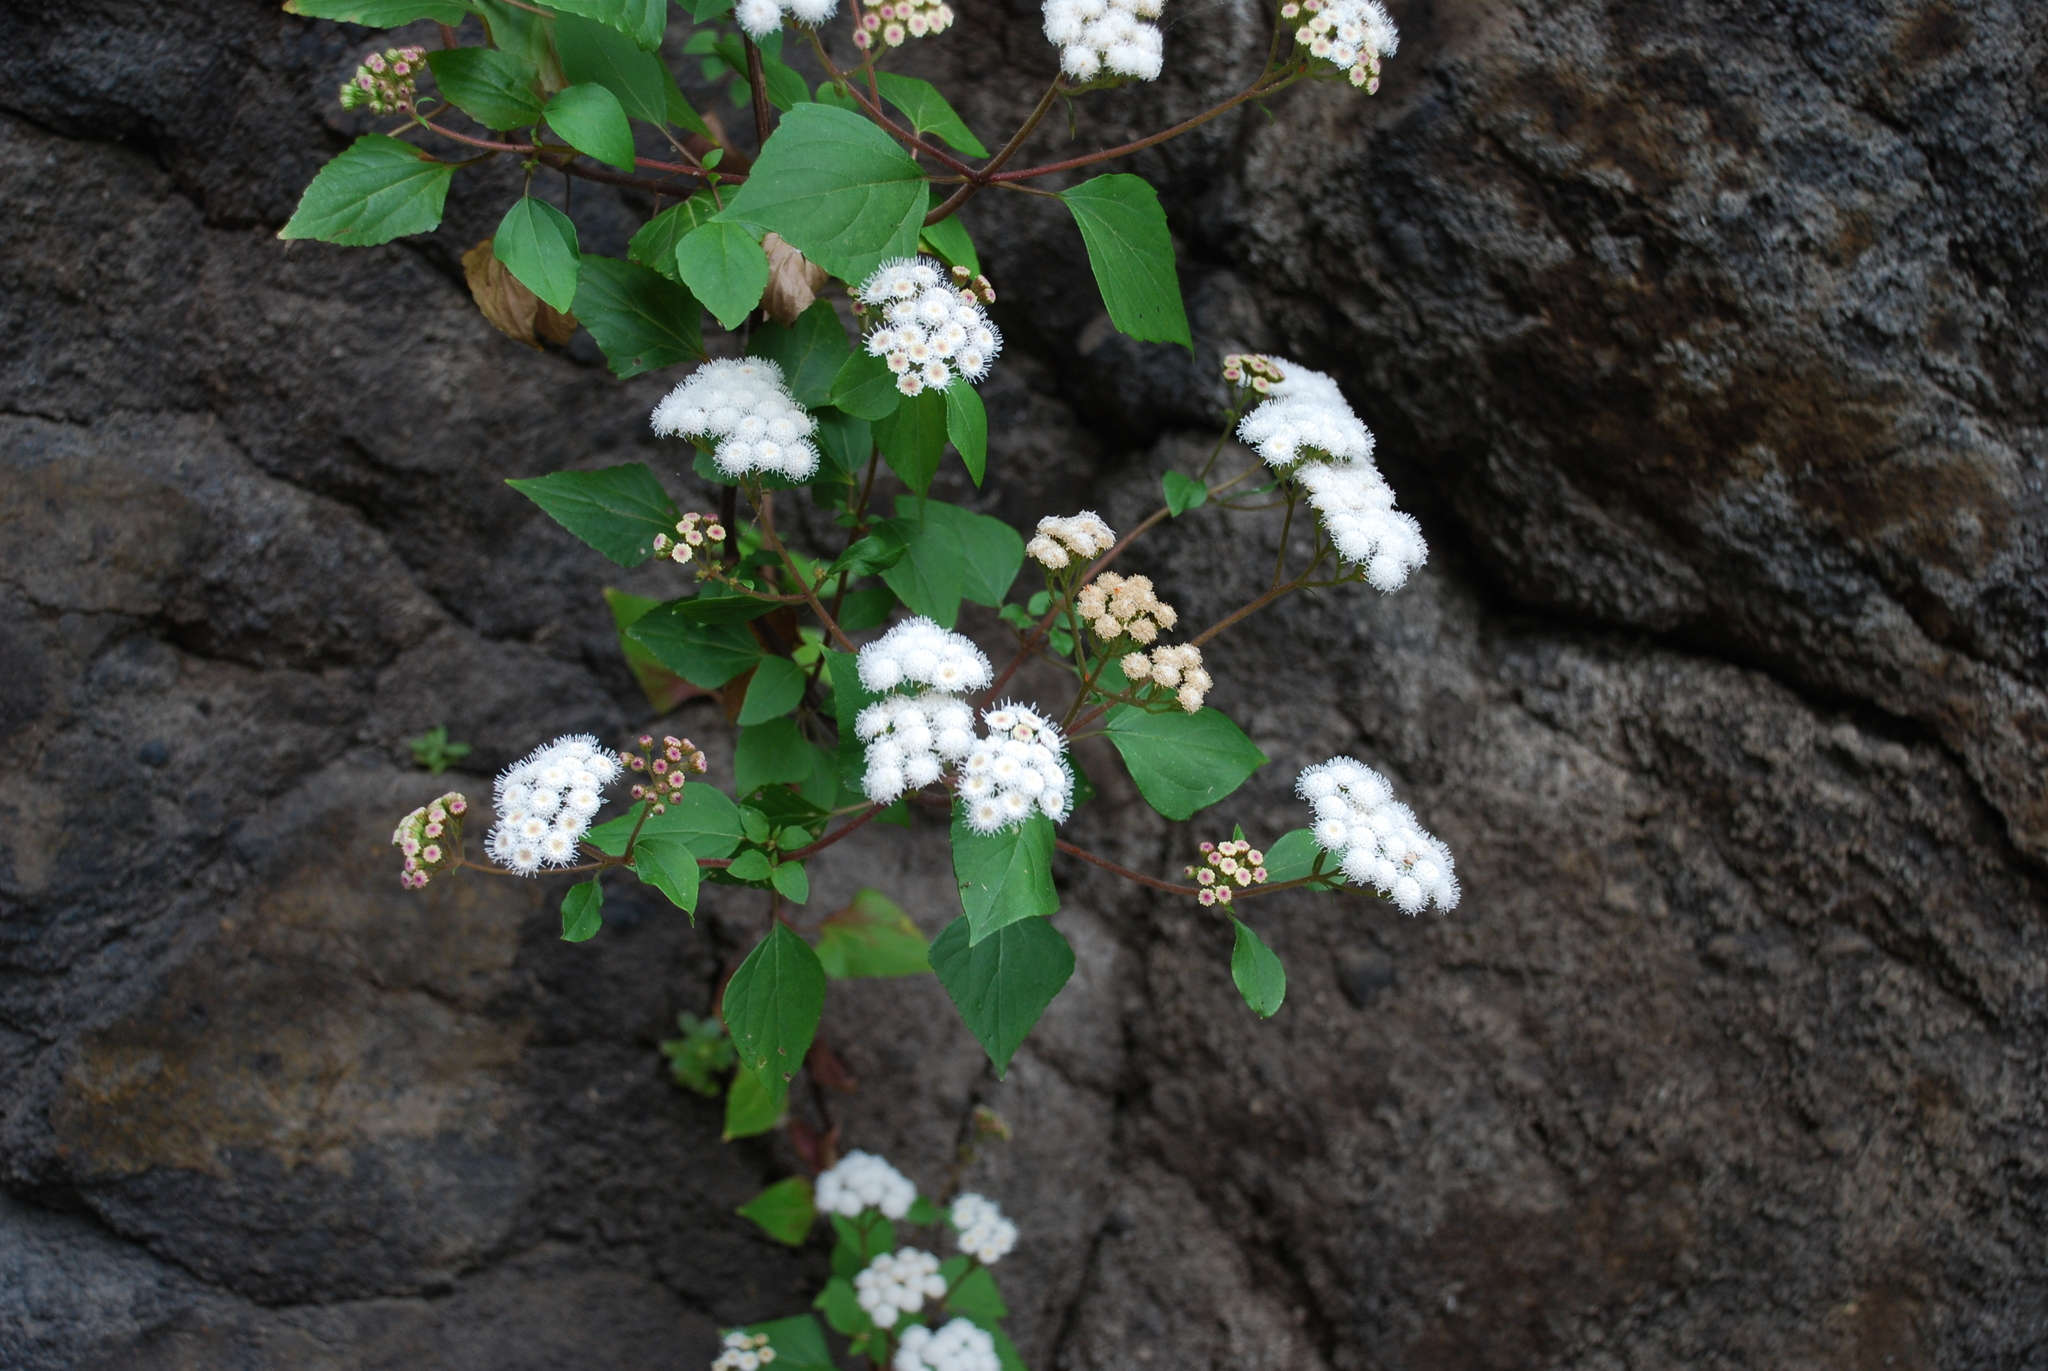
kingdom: Plantae
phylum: Tracheophyta
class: Magnoliopsida
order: Asterales
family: Asteraceae
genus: Ageratina
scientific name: Ageratina adenophora
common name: Sticky snakeroot
